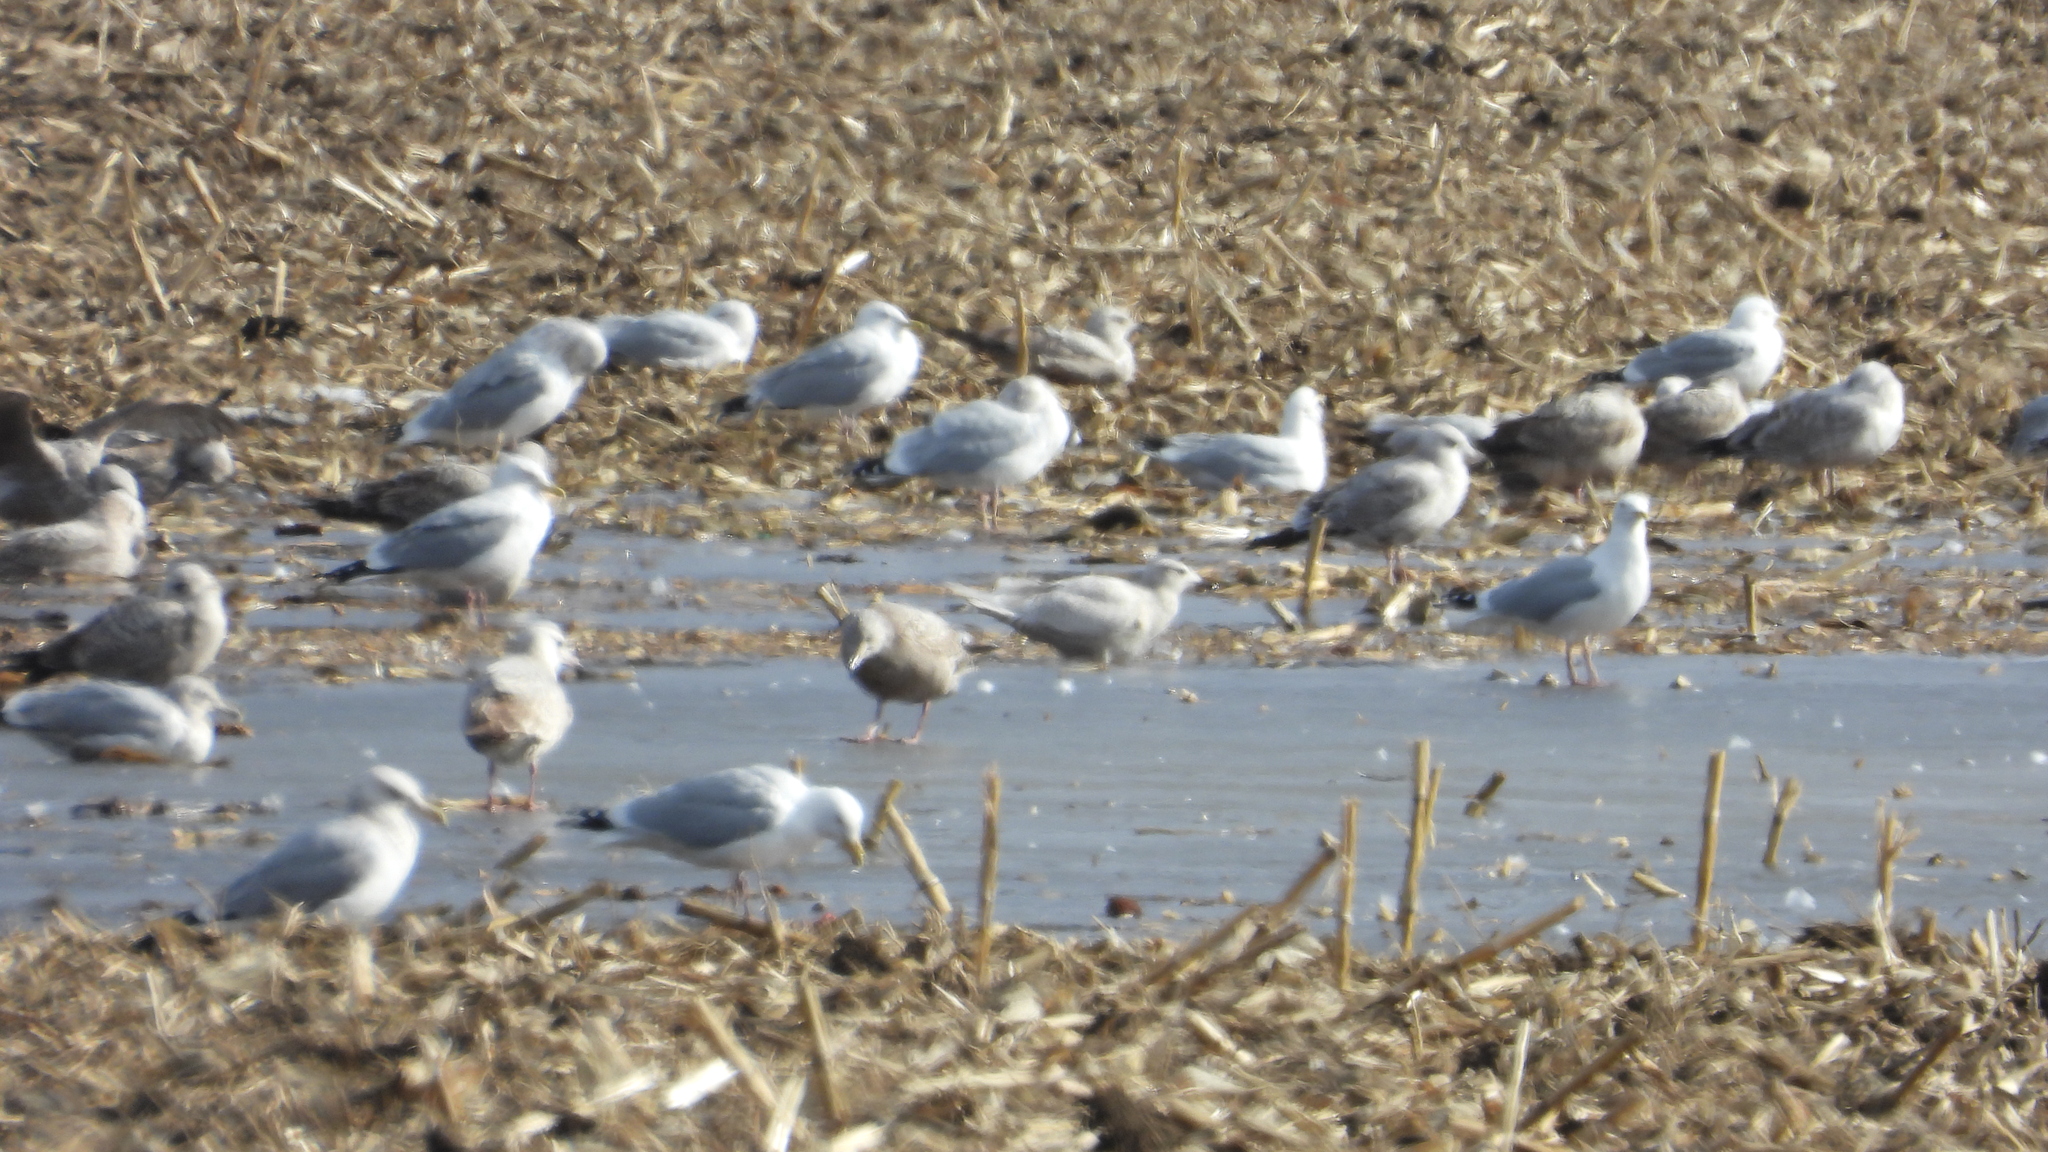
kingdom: Animalia
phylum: Chordata
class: Aves
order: Charadriiformes
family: Laridae
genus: Larus
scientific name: Larus glaucoides
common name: Iceland gull
